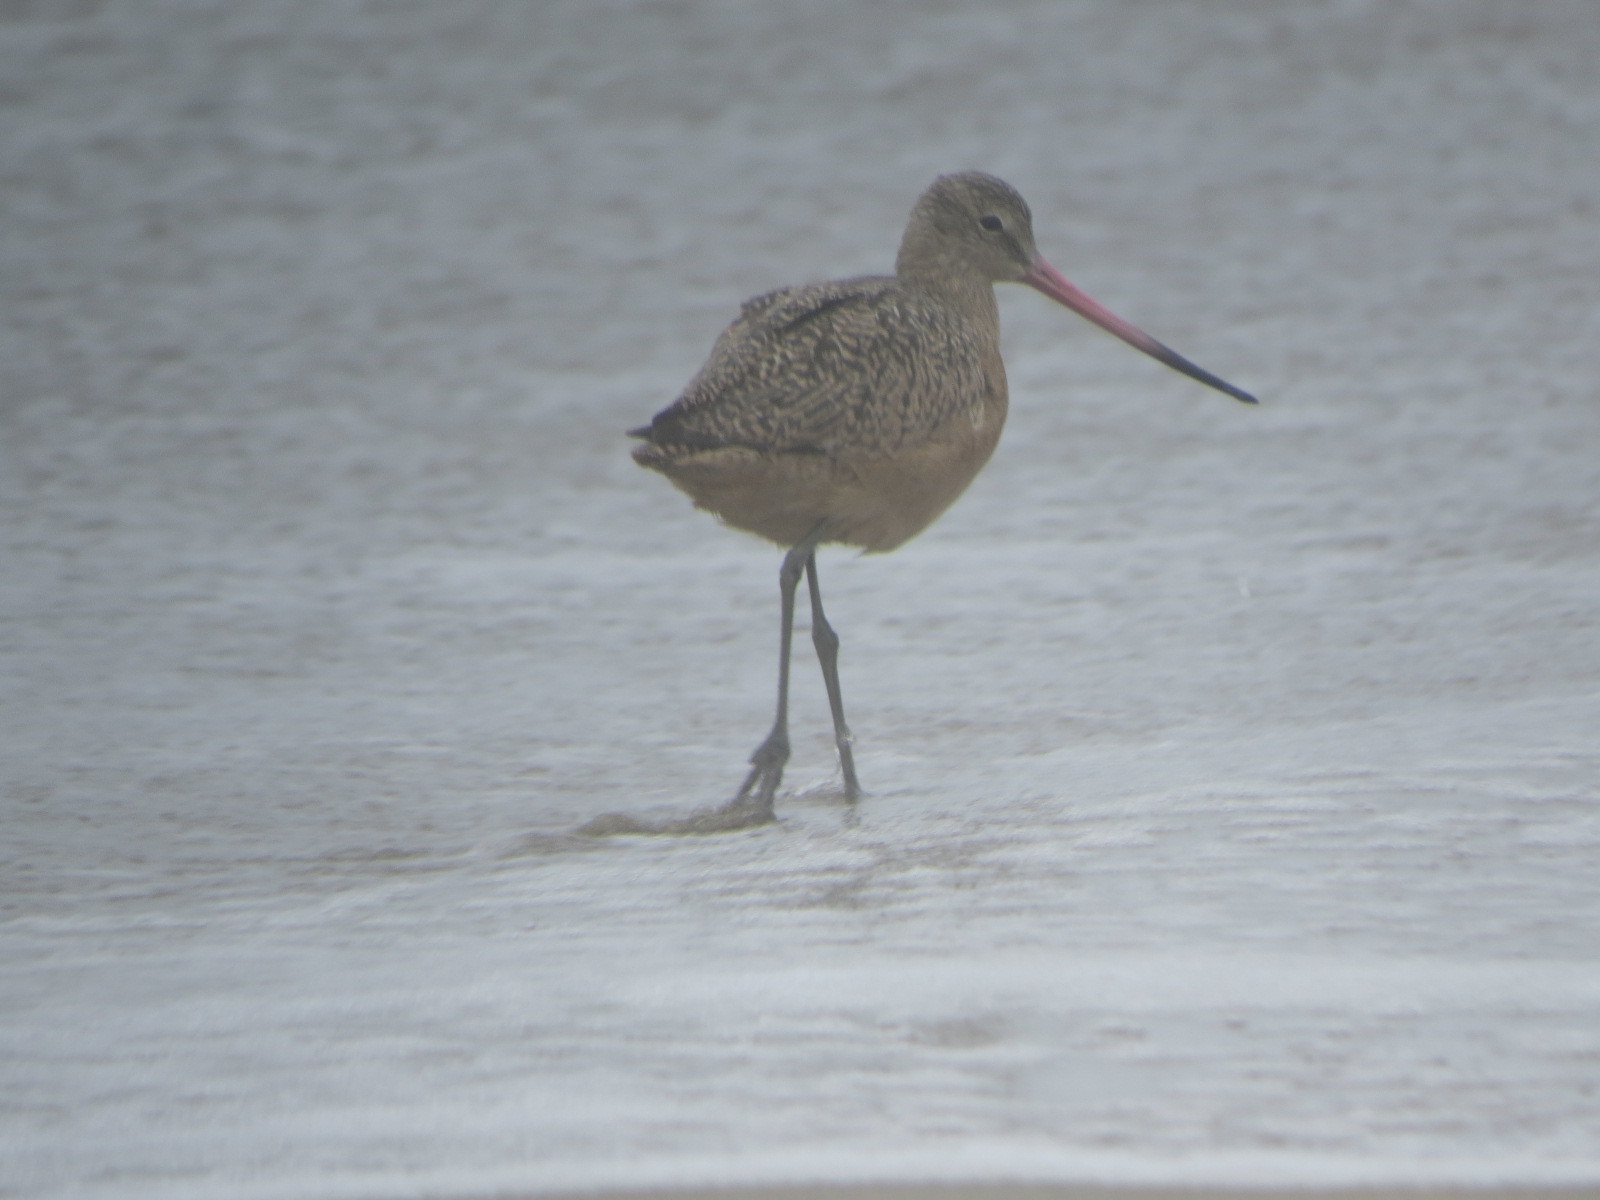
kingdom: Animalia
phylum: Chordata
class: Aves
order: Charadriiformes
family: Scolopacidae
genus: Limosa
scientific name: Limosa fedoa
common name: Marbled godwit
